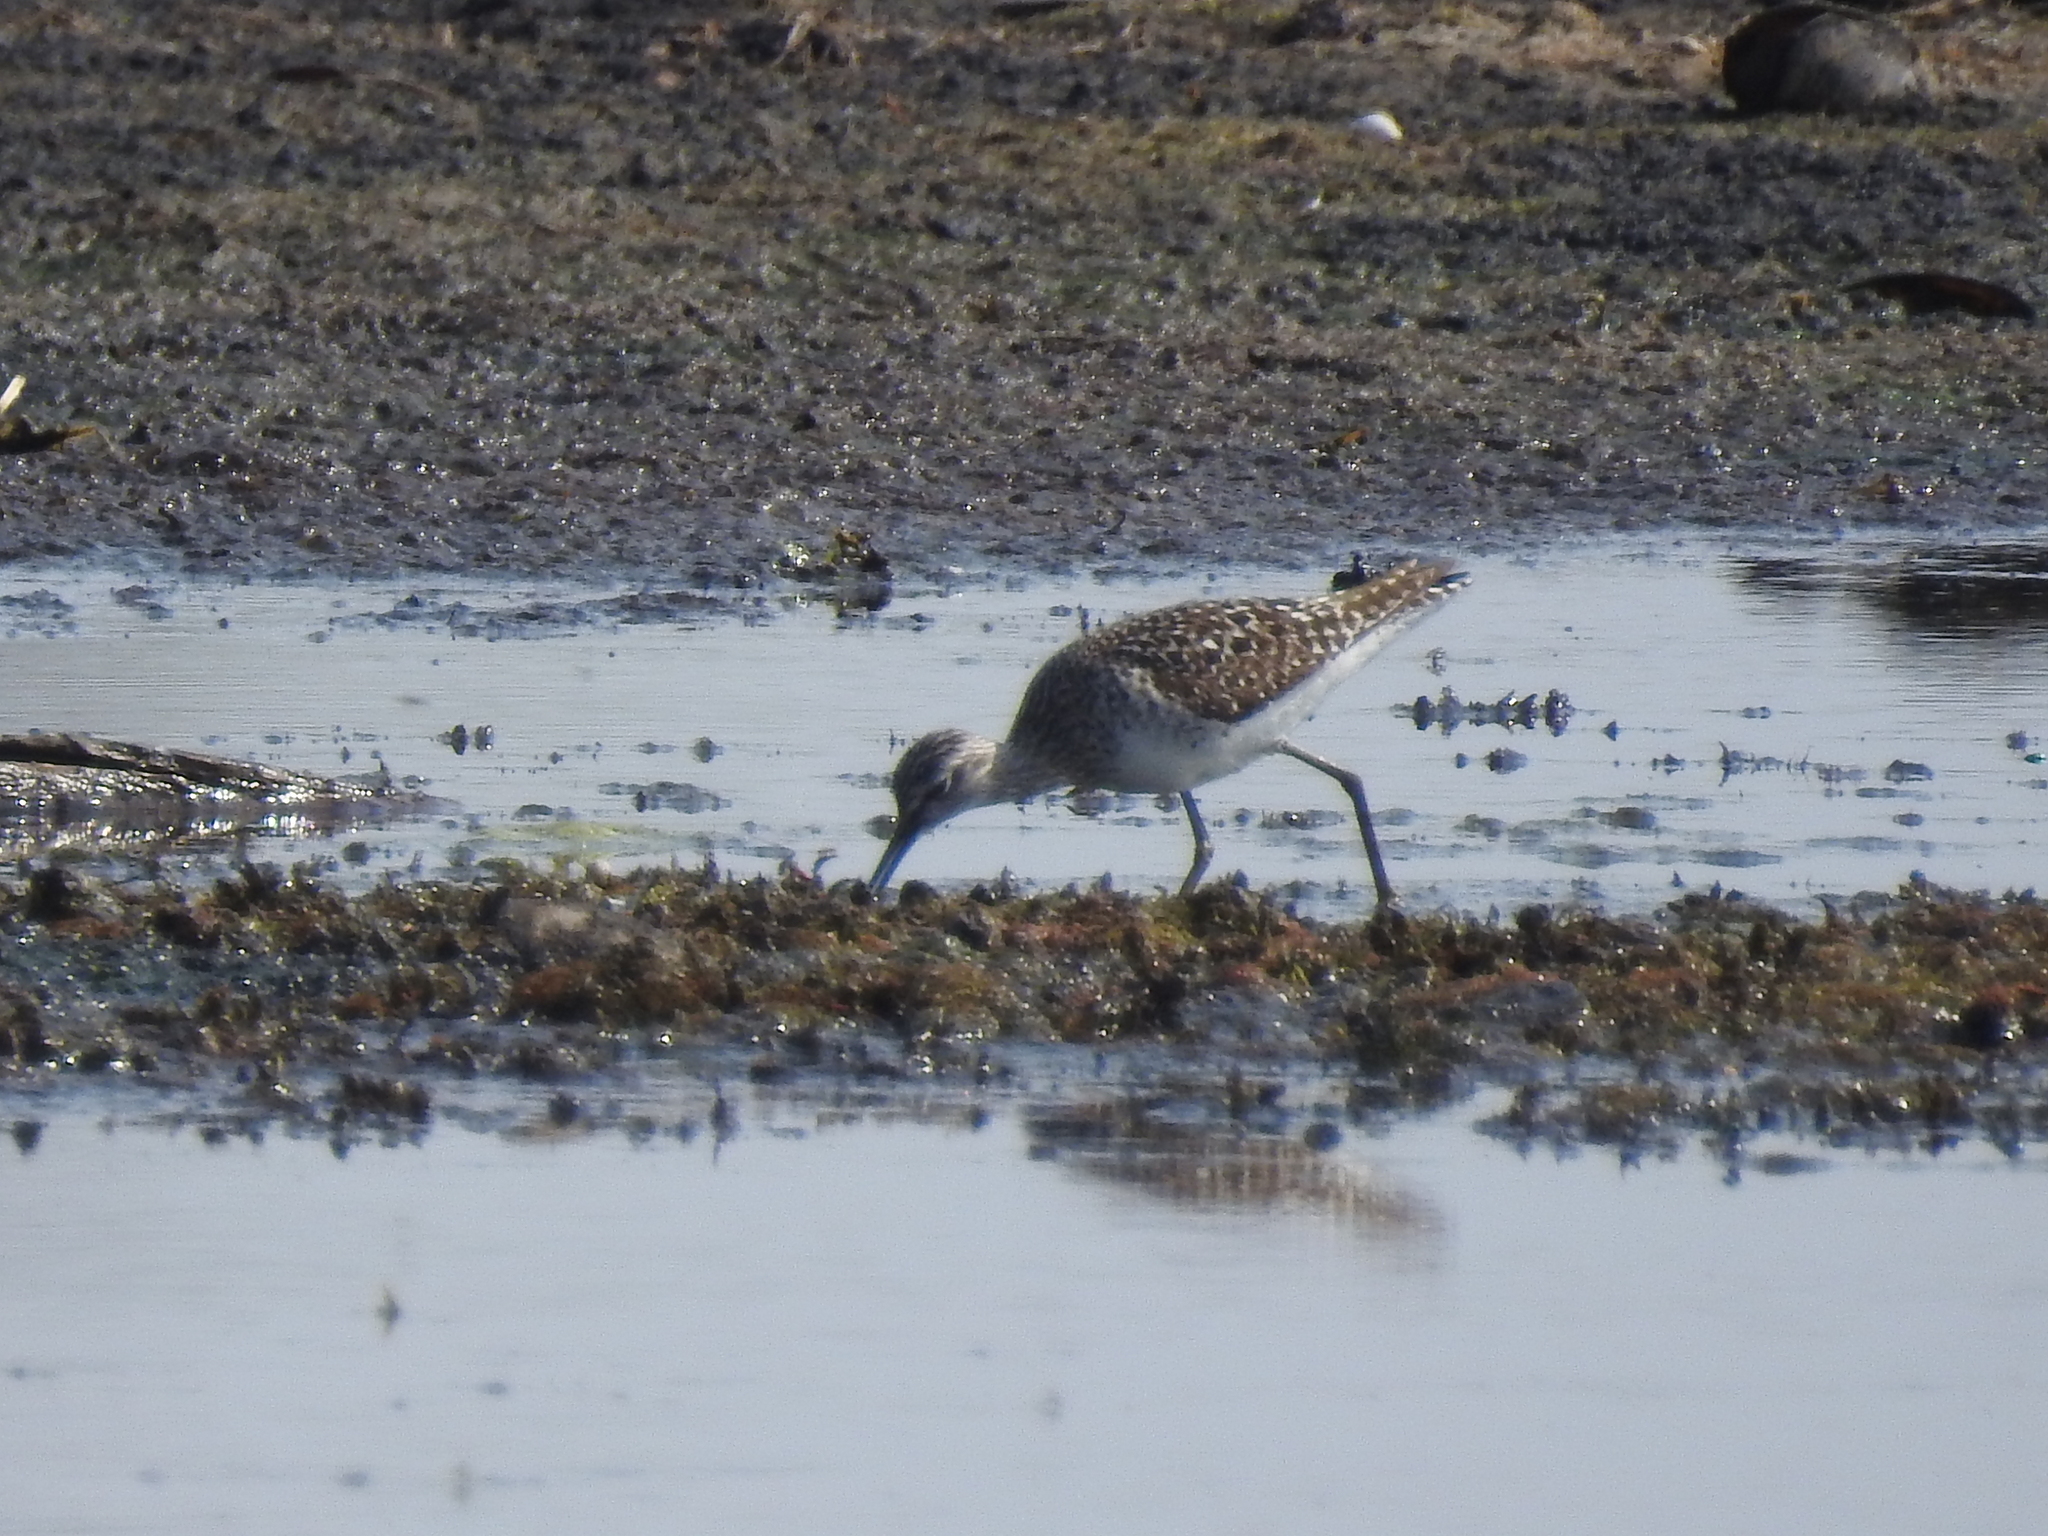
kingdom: Animalia
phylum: Chordata
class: Aves
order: Charadriiformes
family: Scolopacidae
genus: Tringa
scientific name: Tringa glareola
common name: Wood sandpiper
